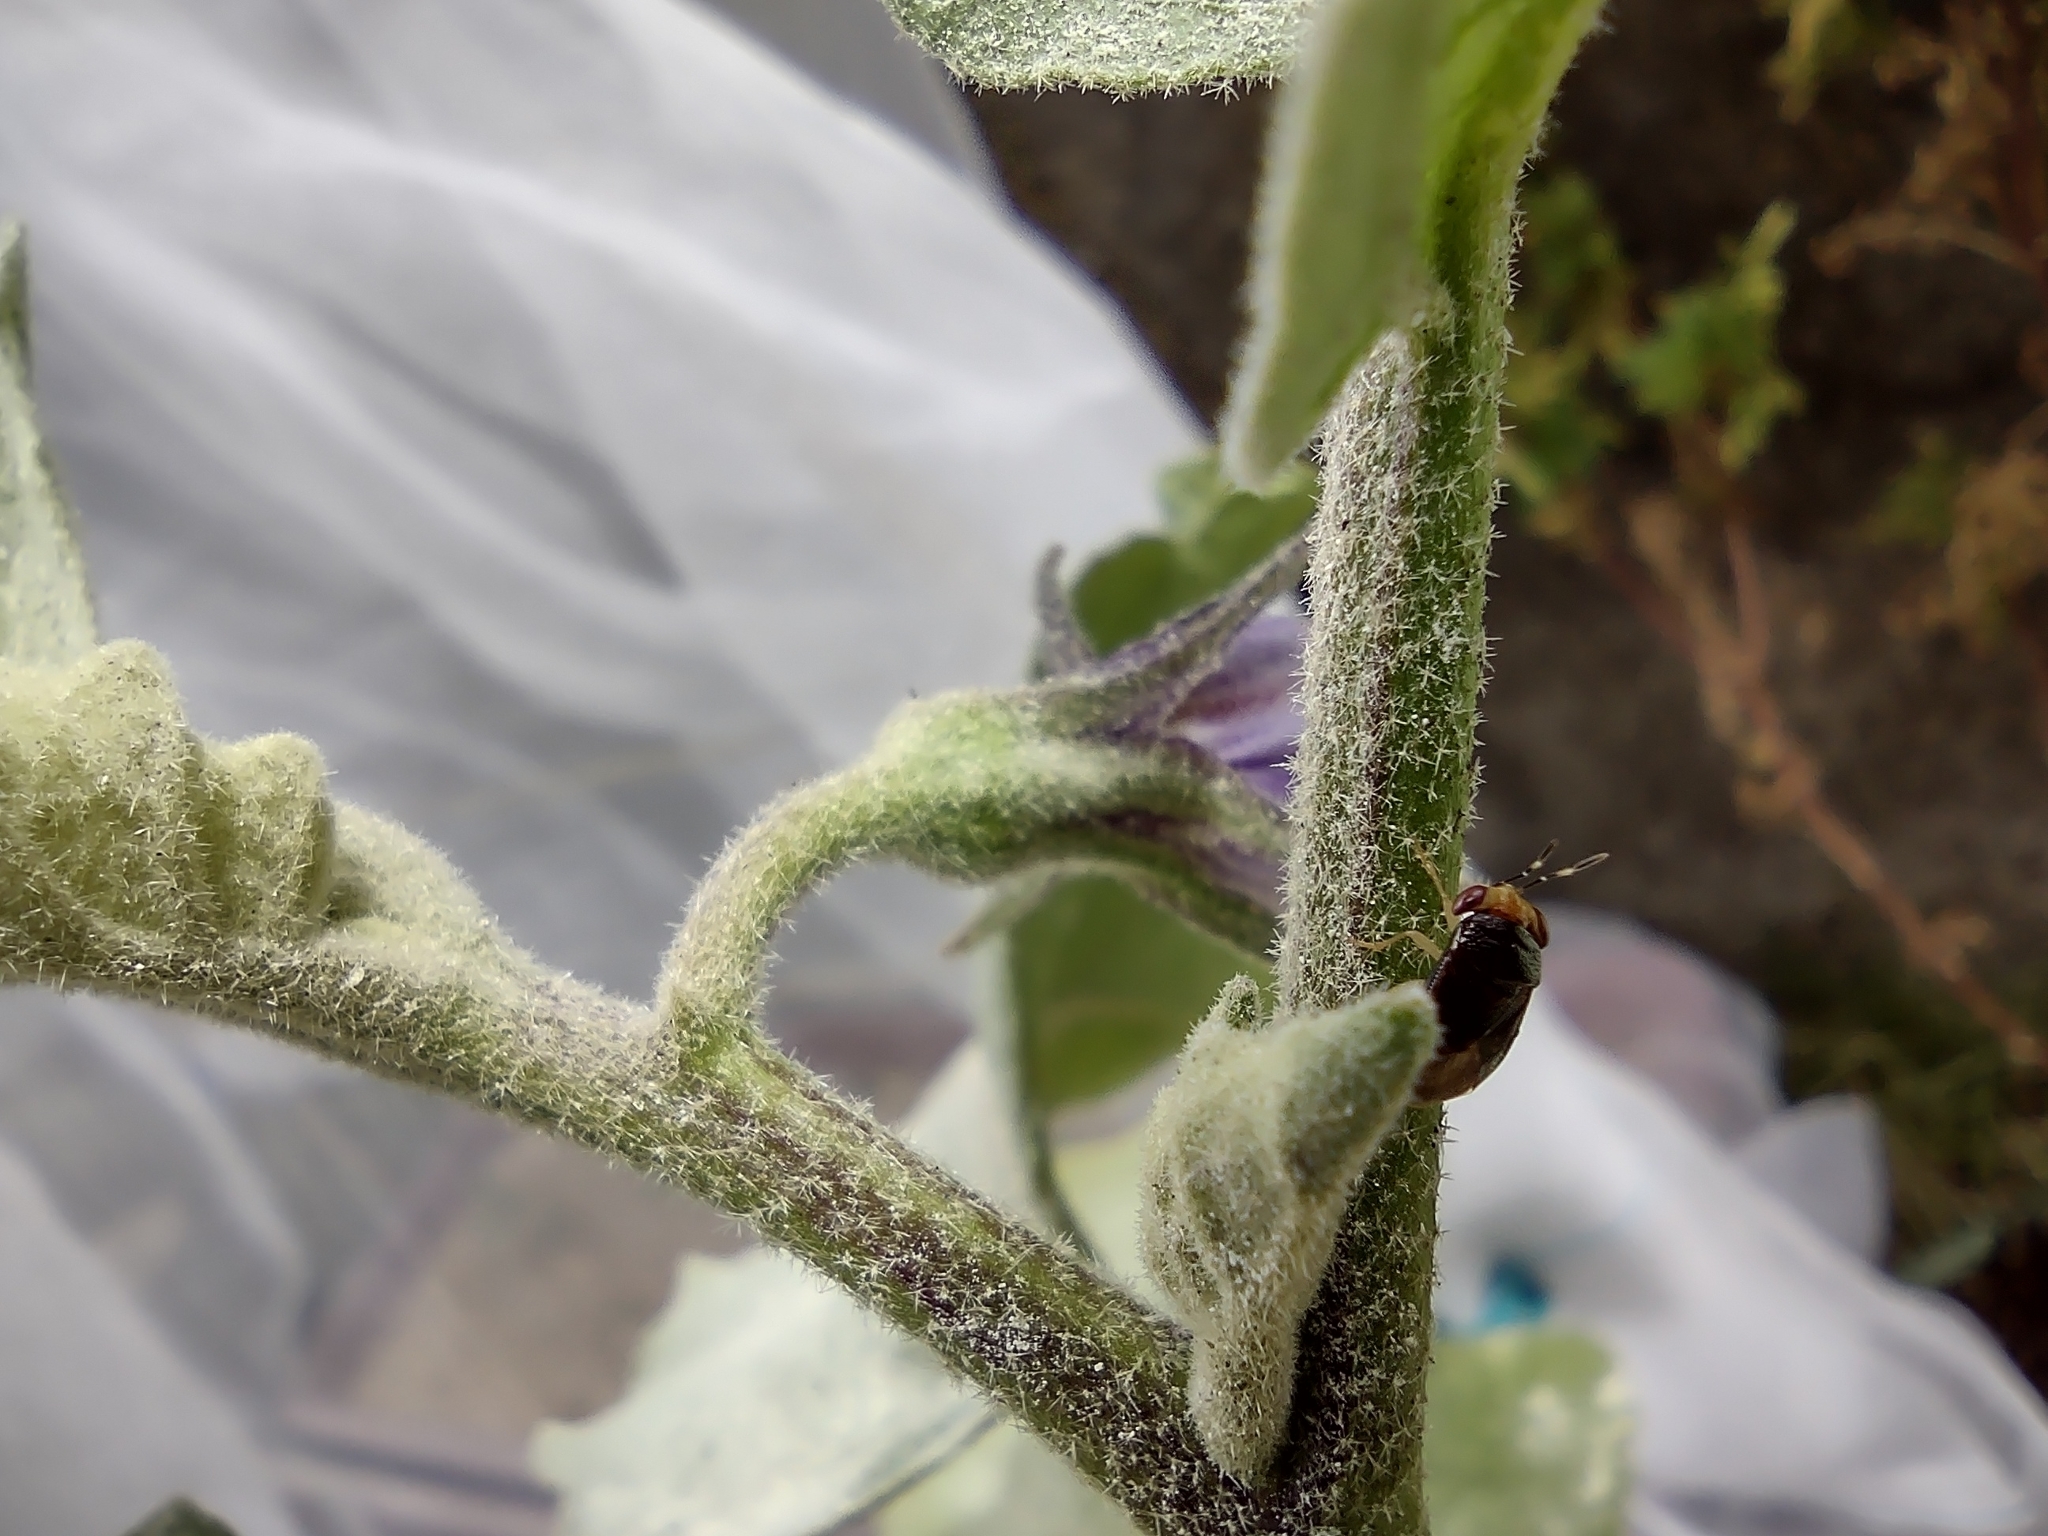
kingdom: Animalia
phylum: Arthropoda
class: Insecta
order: Hemiptera
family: Geocoridae
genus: Geocoris
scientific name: Geocoris flaviceps
